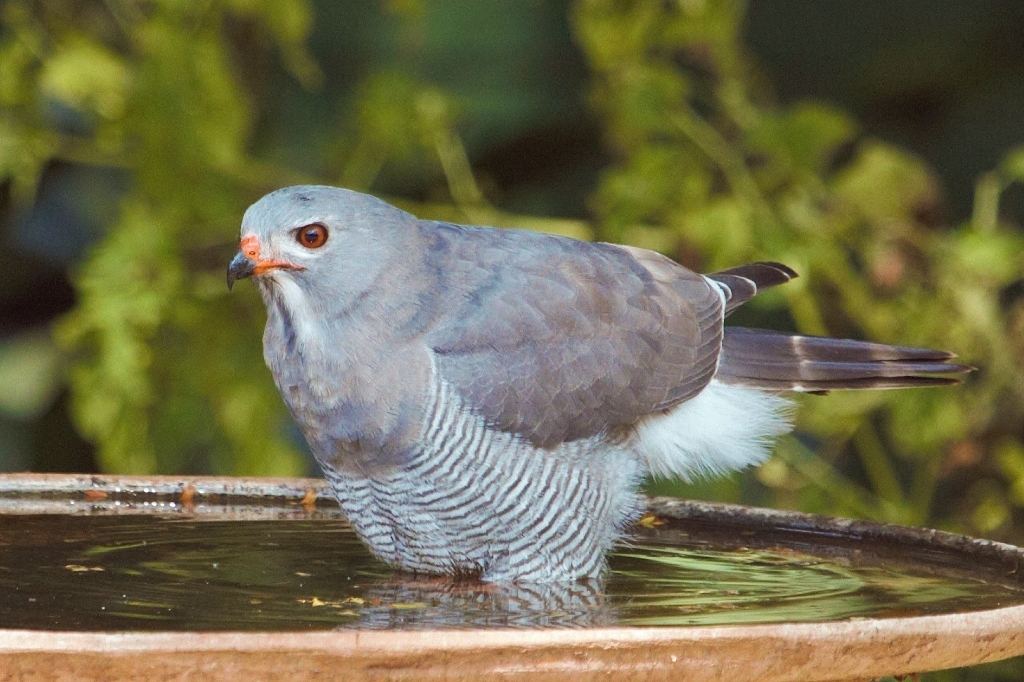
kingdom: Animalia
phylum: Chordata
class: Aves
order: Accipitriformes
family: Accipitridae
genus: Kaupifalco
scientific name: Kaupifalco monogrammicus
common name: Lizard buzzard
